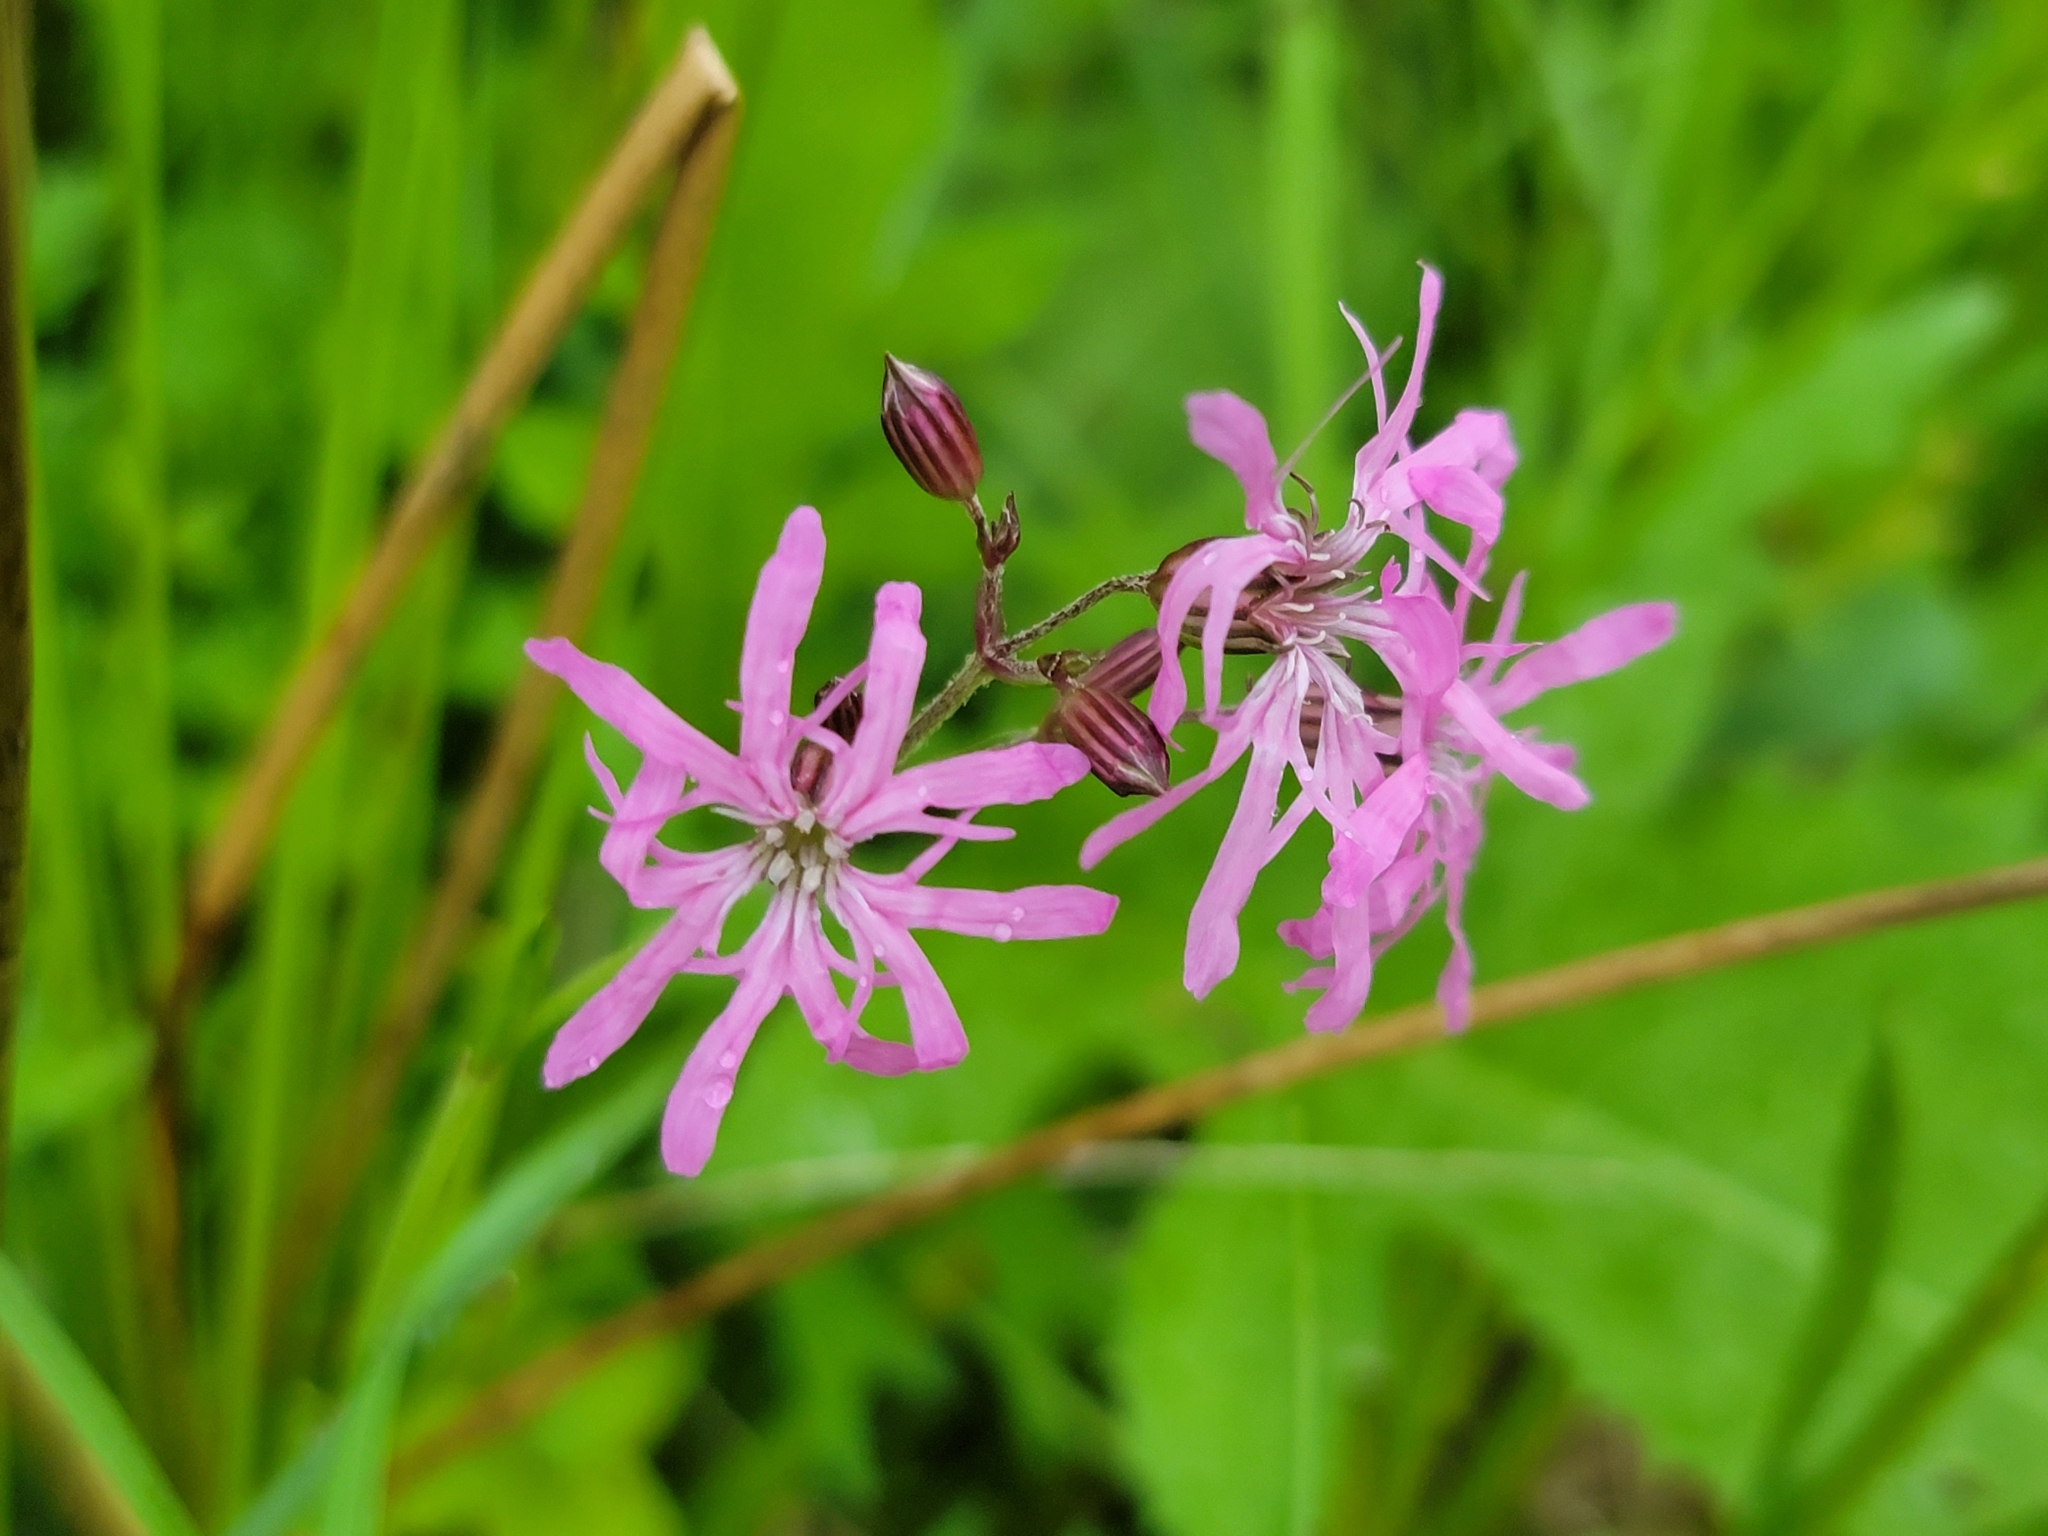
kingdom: Plantae
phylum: Tracheophyta
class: Magnoliopsida
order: Caryophyllales
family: Caryophyllaceae
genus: Silene
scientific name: Silene flos-cuculi
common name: Ragged-robin
